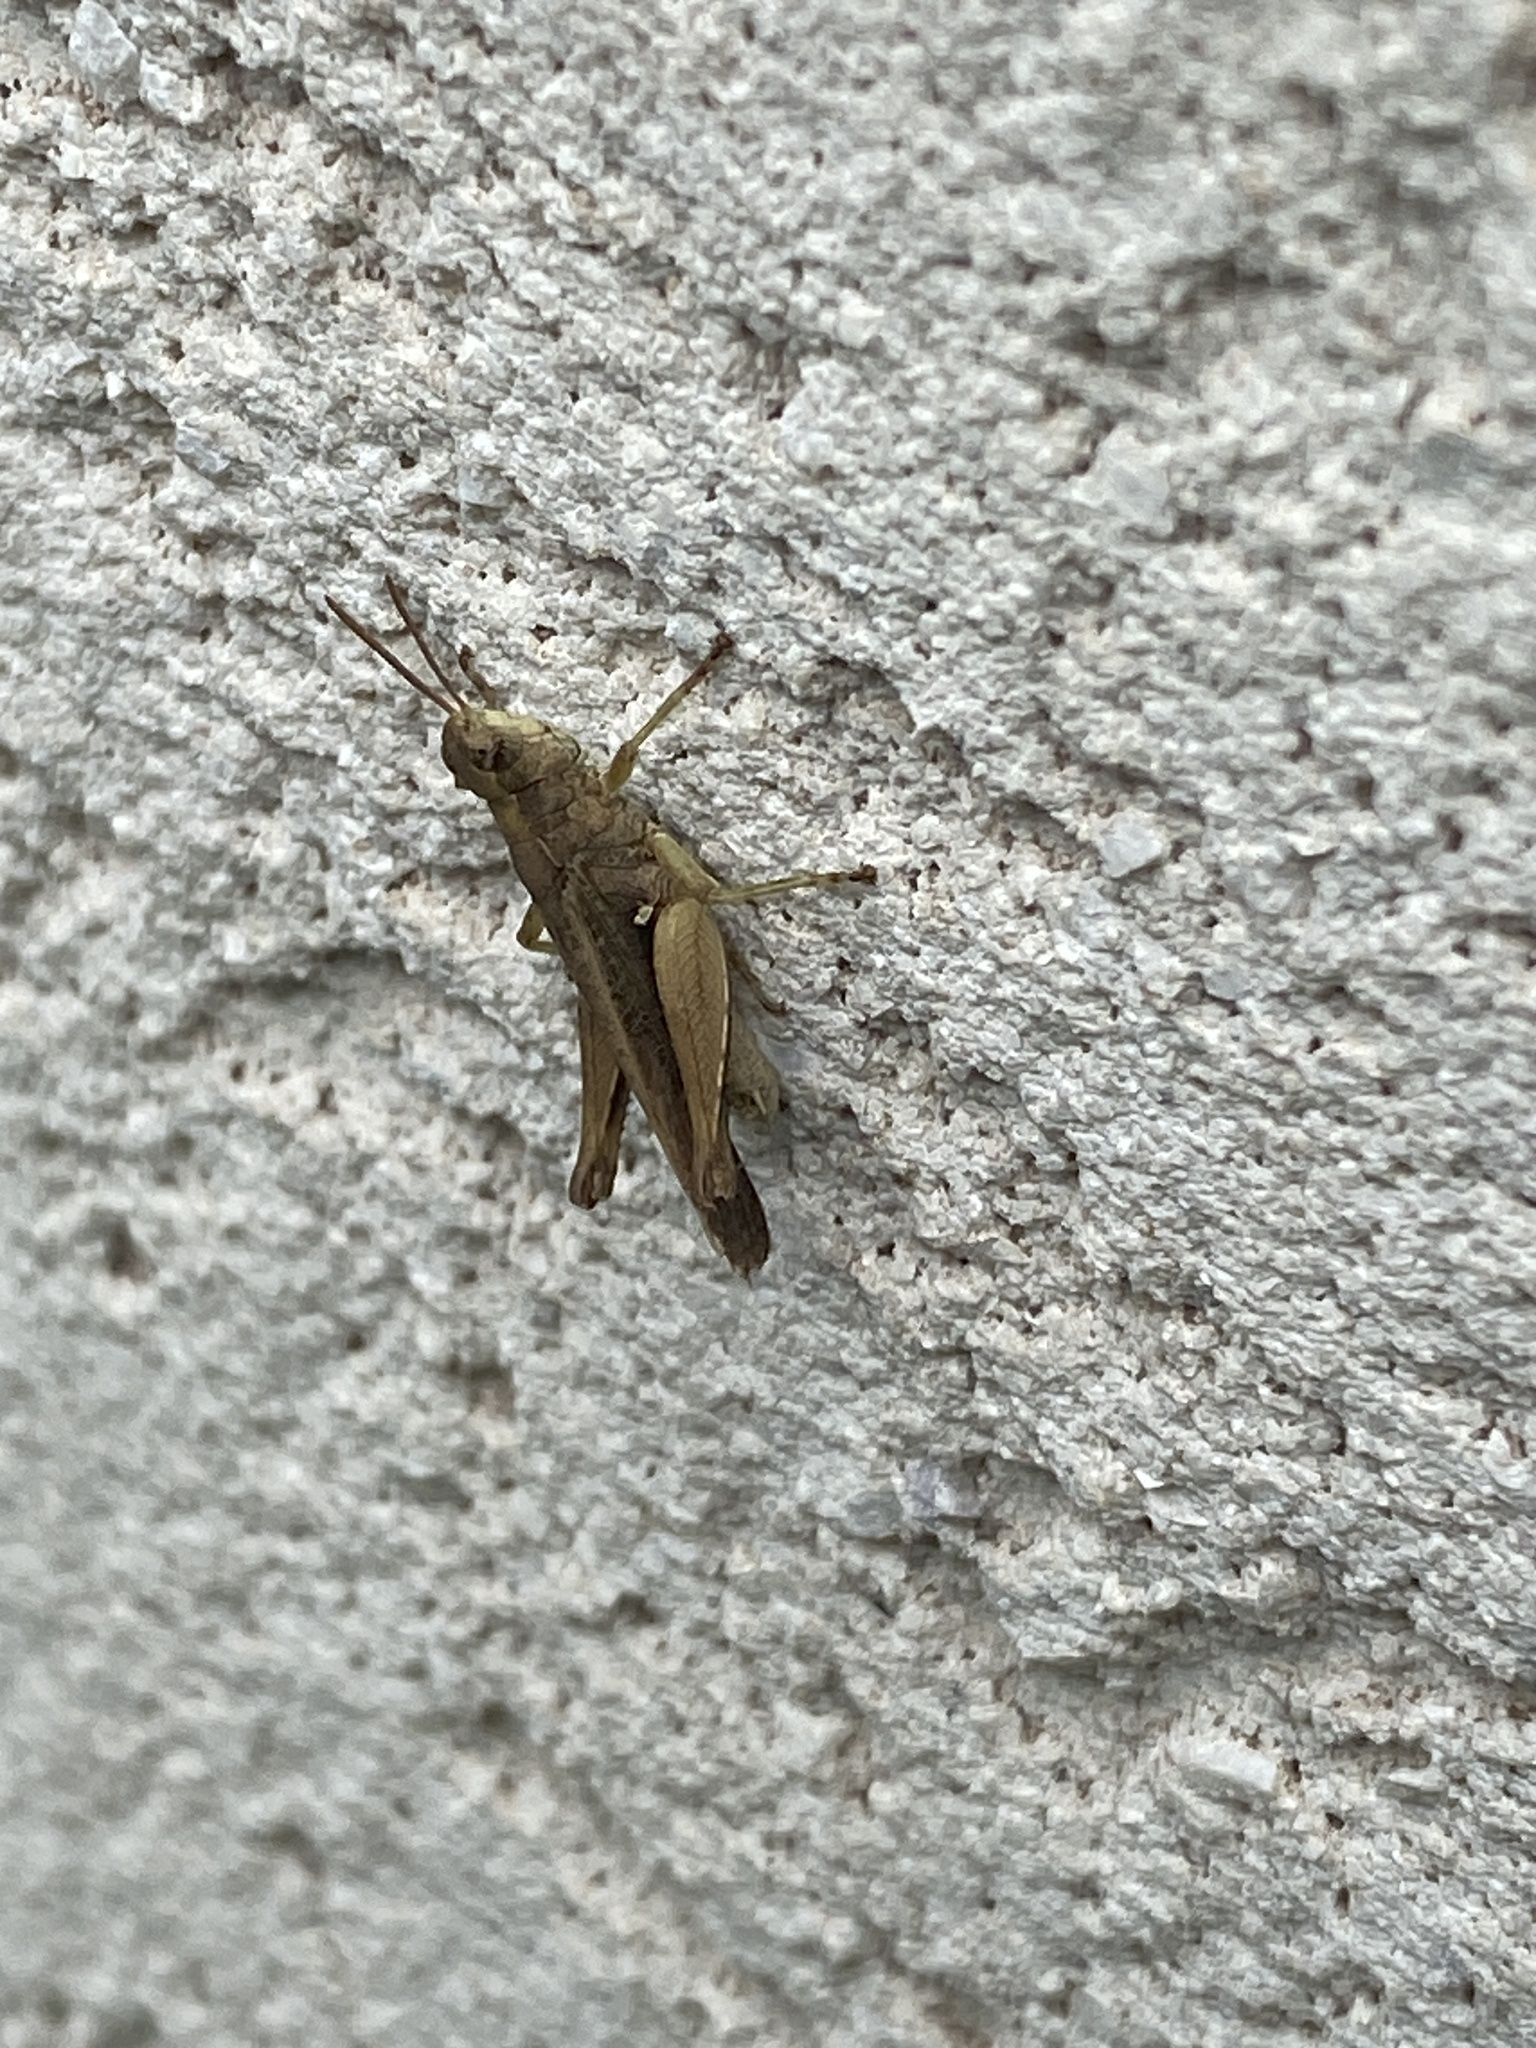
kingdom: Animalia
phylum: Arthropoda
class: Insecta
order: Orthoptera
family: Acrididae
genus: Orphulella
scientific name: Orphulella punctata
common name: Slant-faced grasshopper
